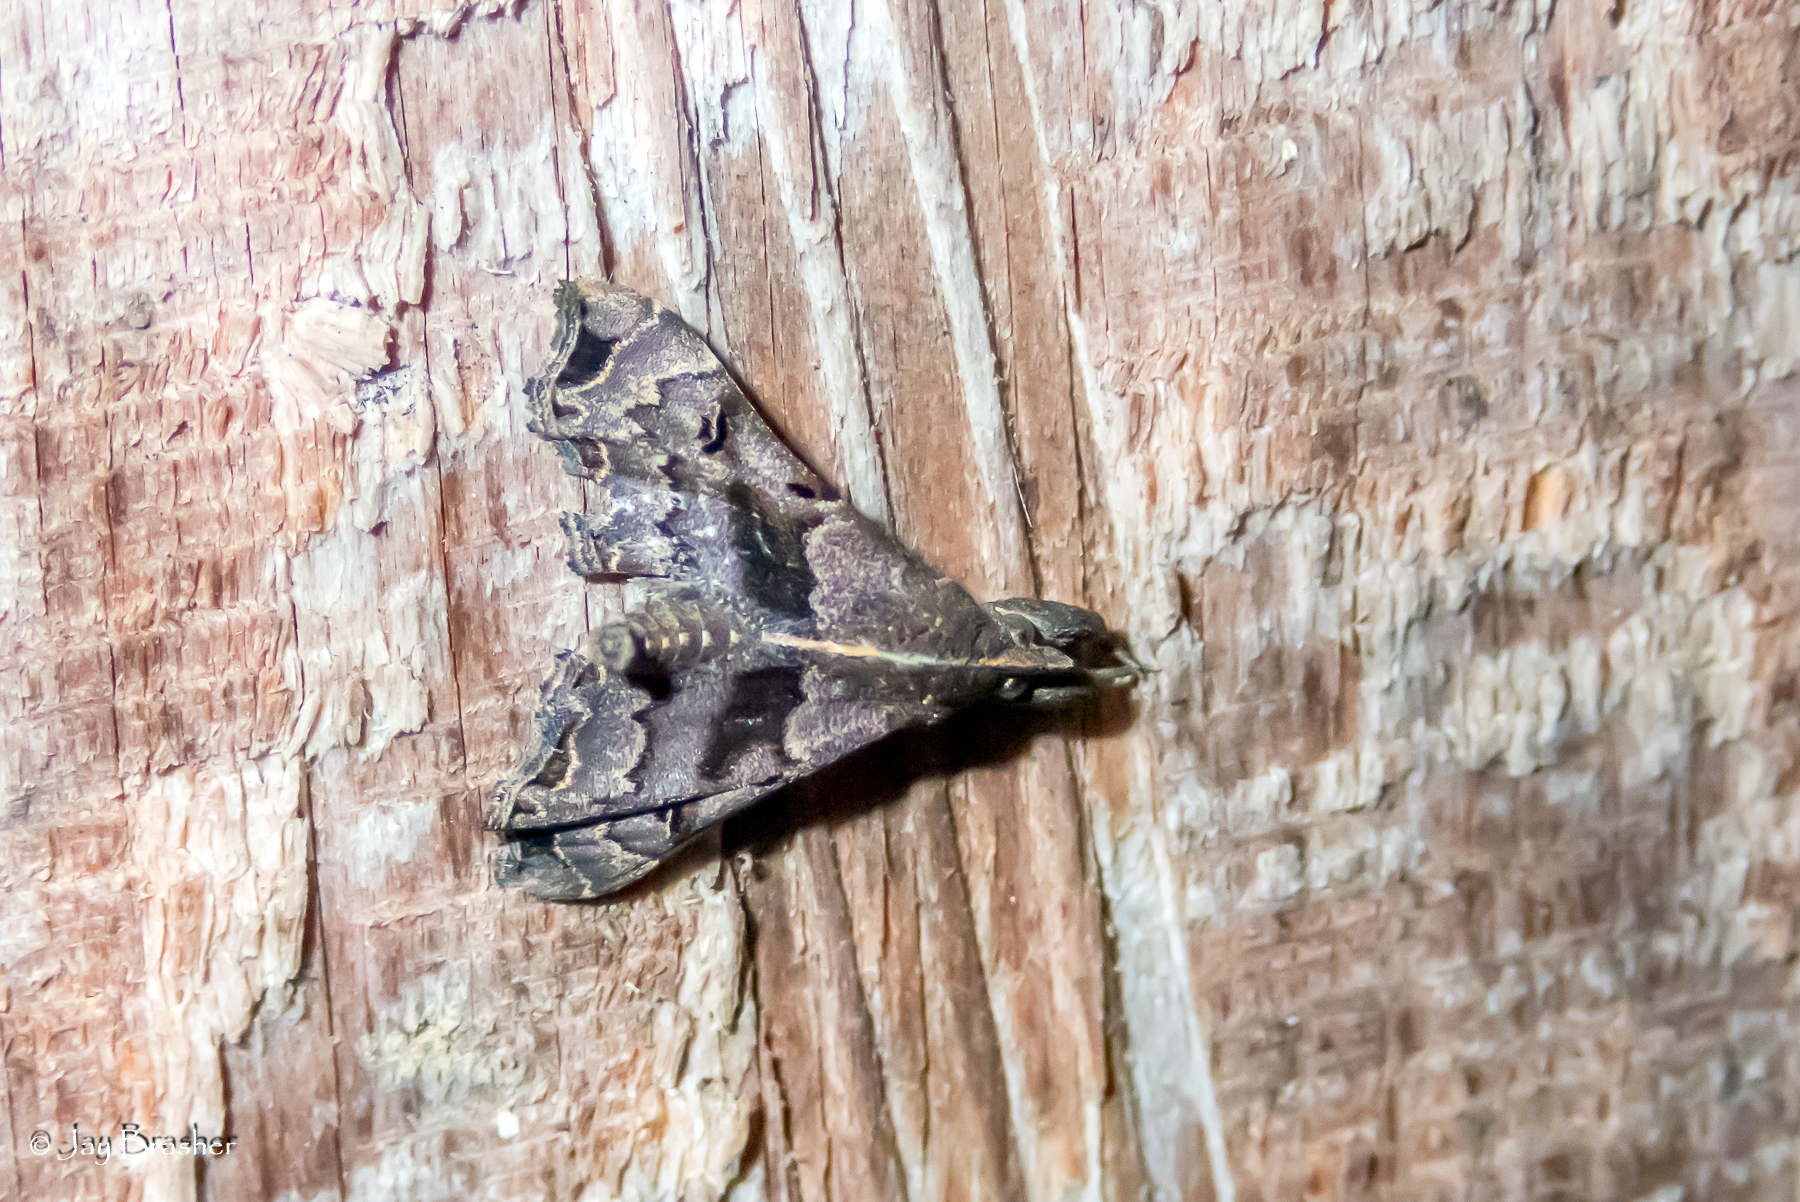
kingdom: Animalia
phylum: Arthropoda
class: Insecta
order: Lepidoptera
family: Erebidae
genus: Palthis
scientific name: Palthis asopialis
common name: Faint-spotted palthis moth
